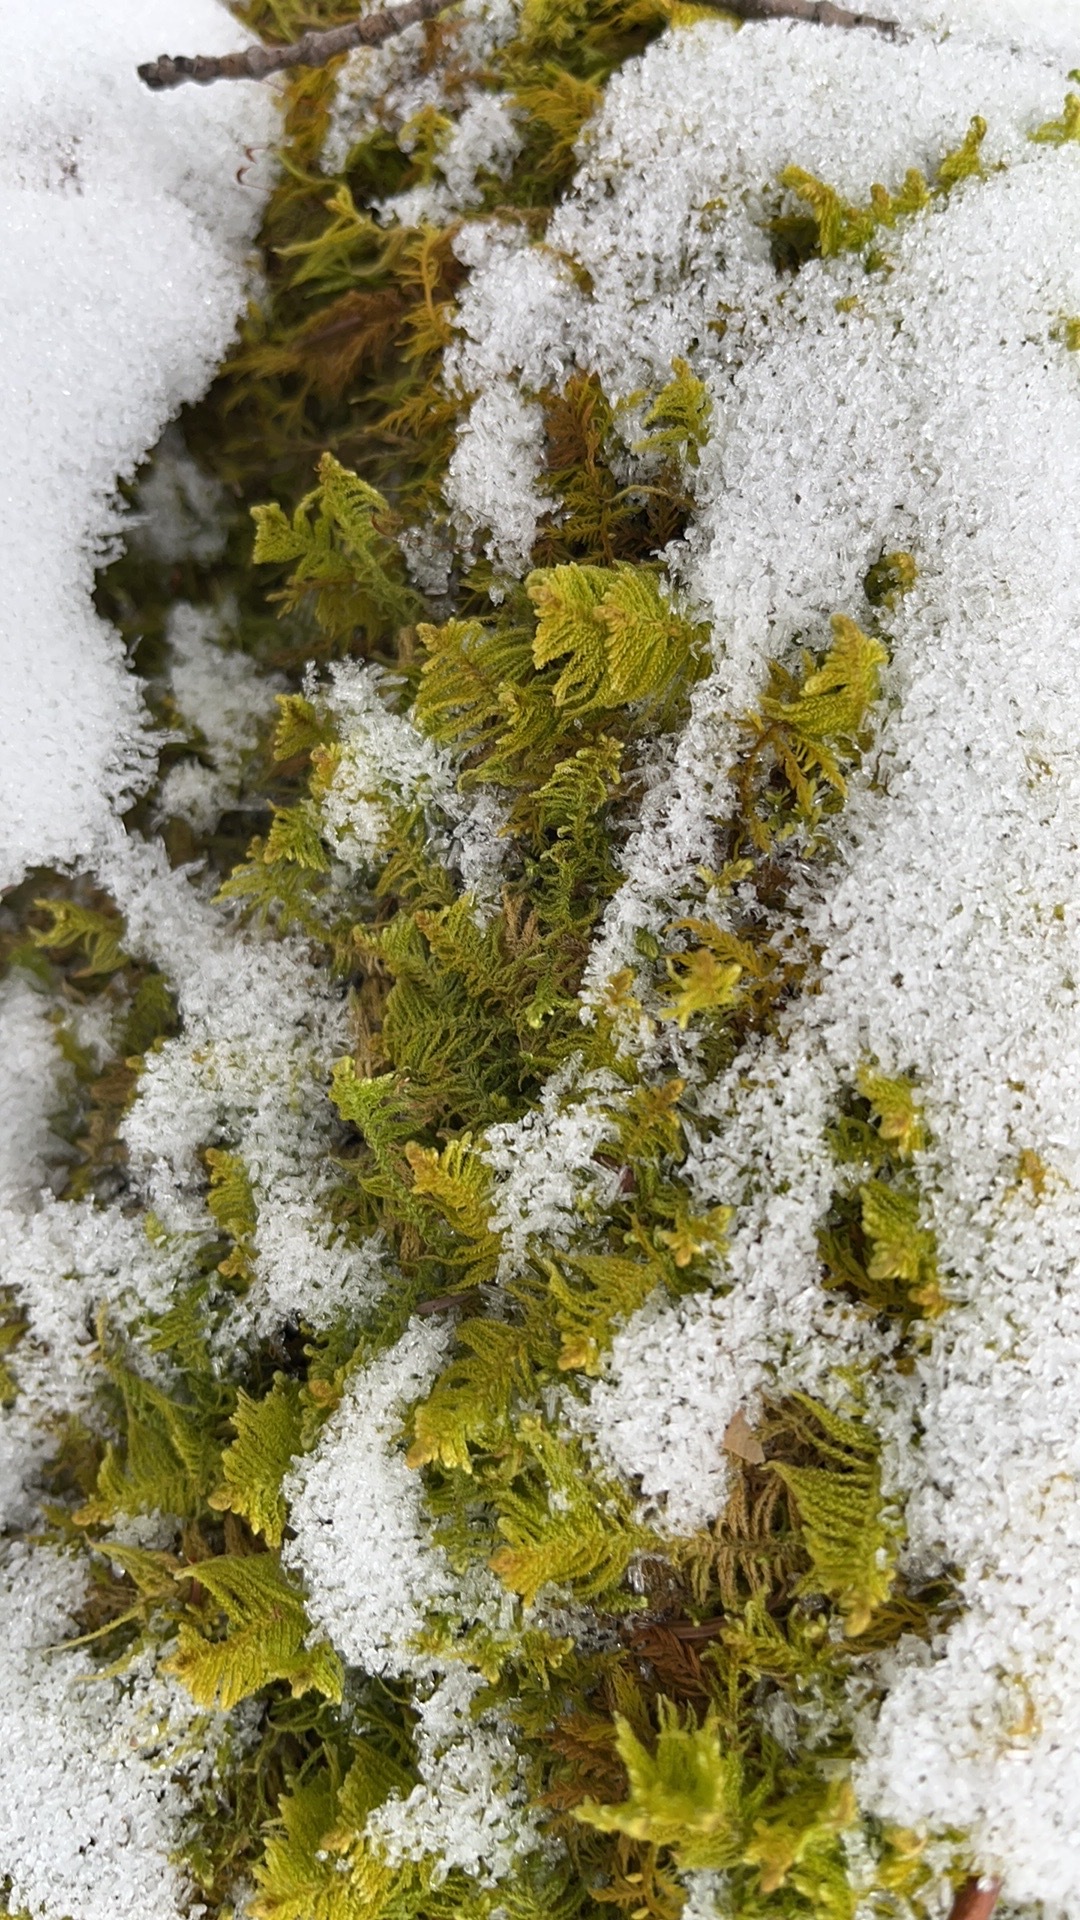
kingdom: Plantae
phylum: Bryophyta
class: Bryopsida
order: Hypnales
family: Pylaisiaceae
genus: Ptilium
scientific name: Ptilium crista-castrensis
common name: Knight's plume moss
